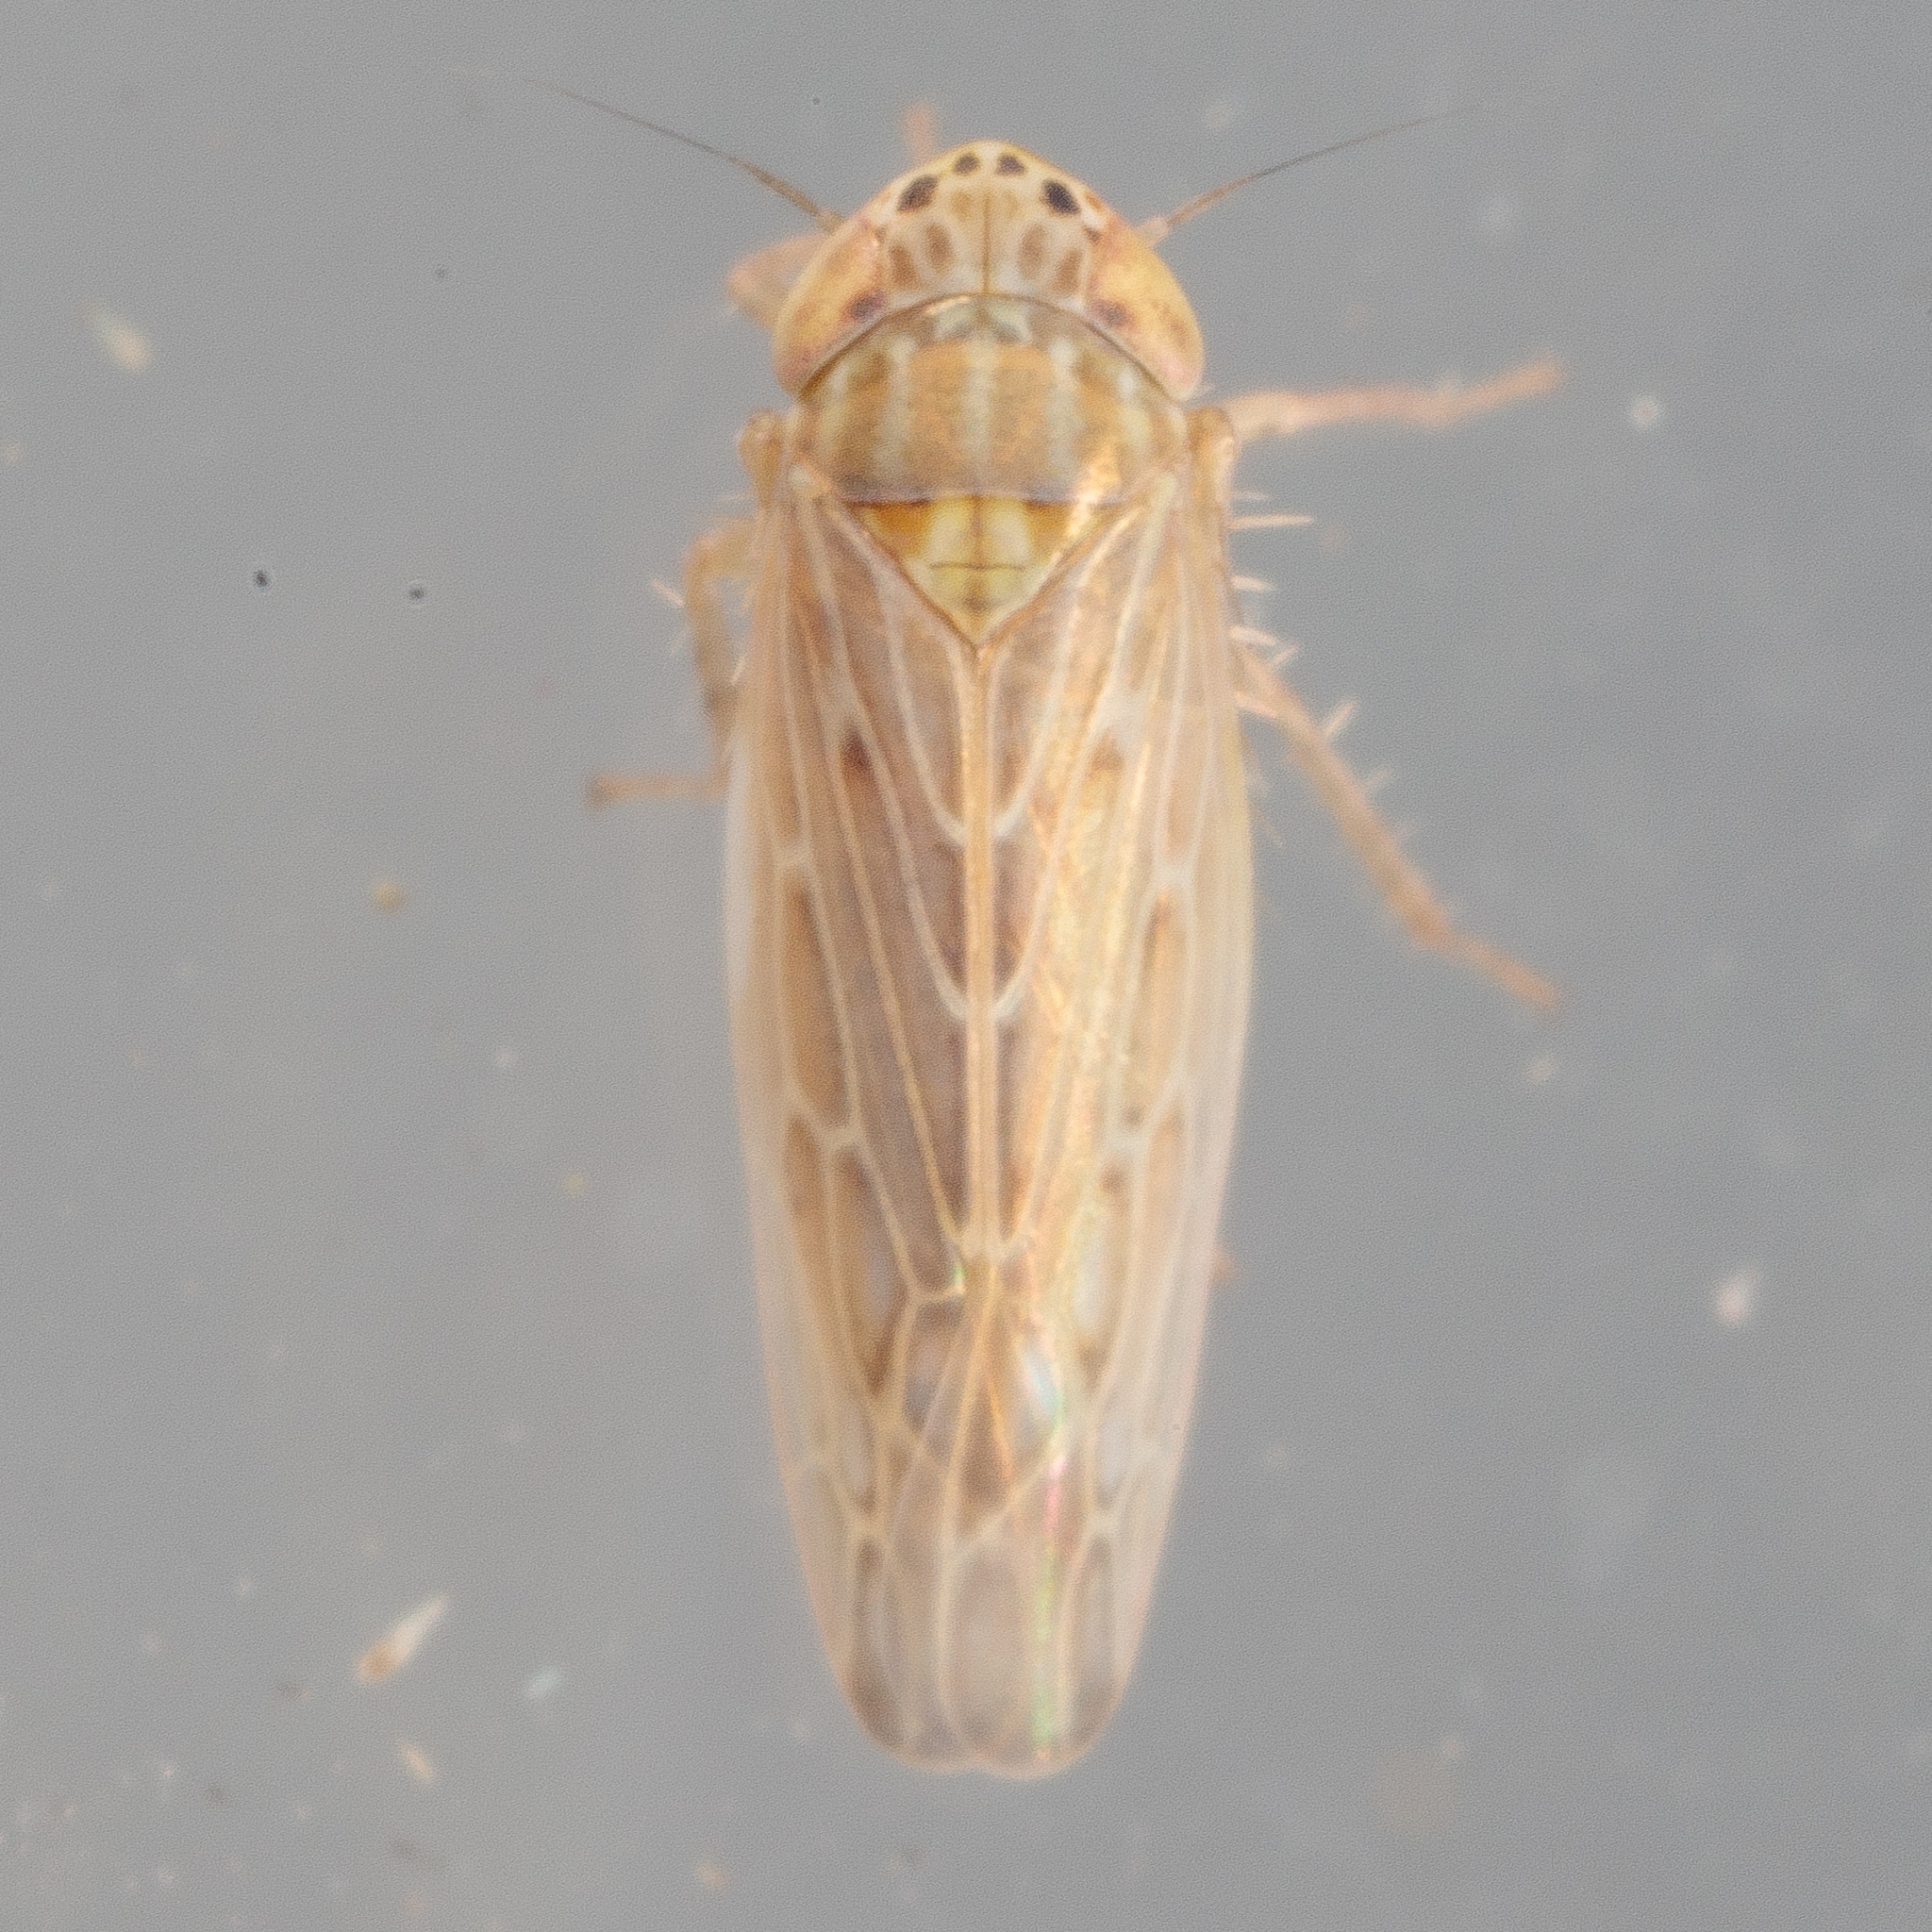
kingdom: Animalia
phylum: Arthropoda
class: Insecta
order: Hemiptera
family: Cicadellidae
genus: Graminella
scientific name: Graminella sonora
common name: Lesser lawn leafhopper
